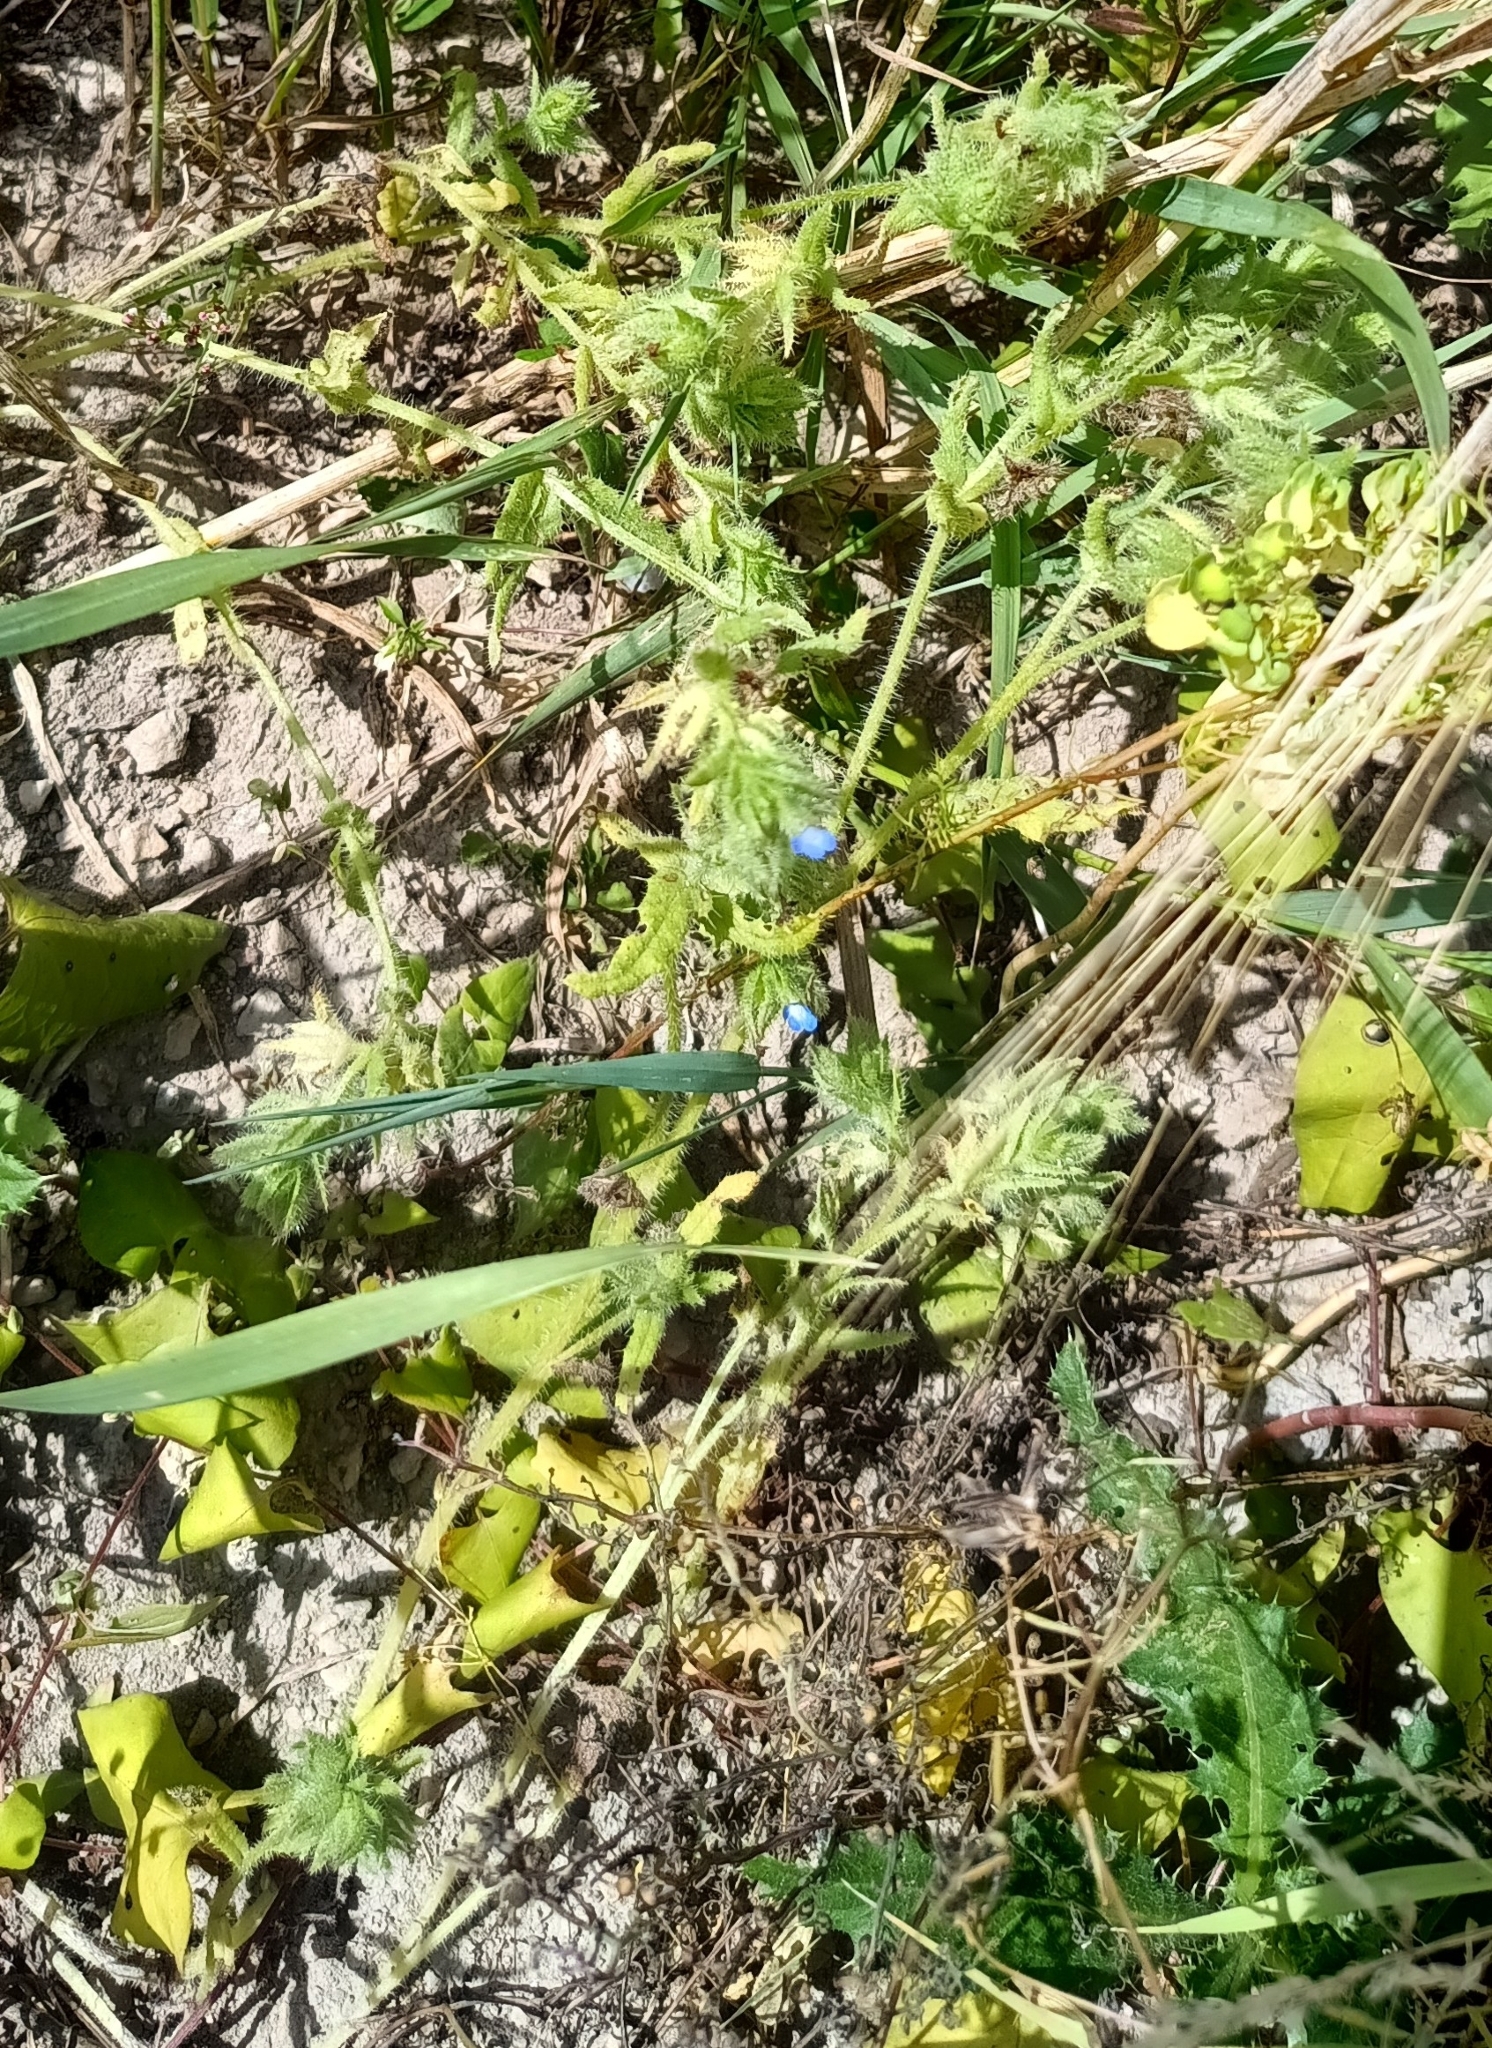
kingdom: Plantae
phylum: Tracheophyta
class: Magnoliopsida
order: Boraginales
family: Boraginaceae
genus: Lycopsis
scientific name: Lycopsis arvensis
